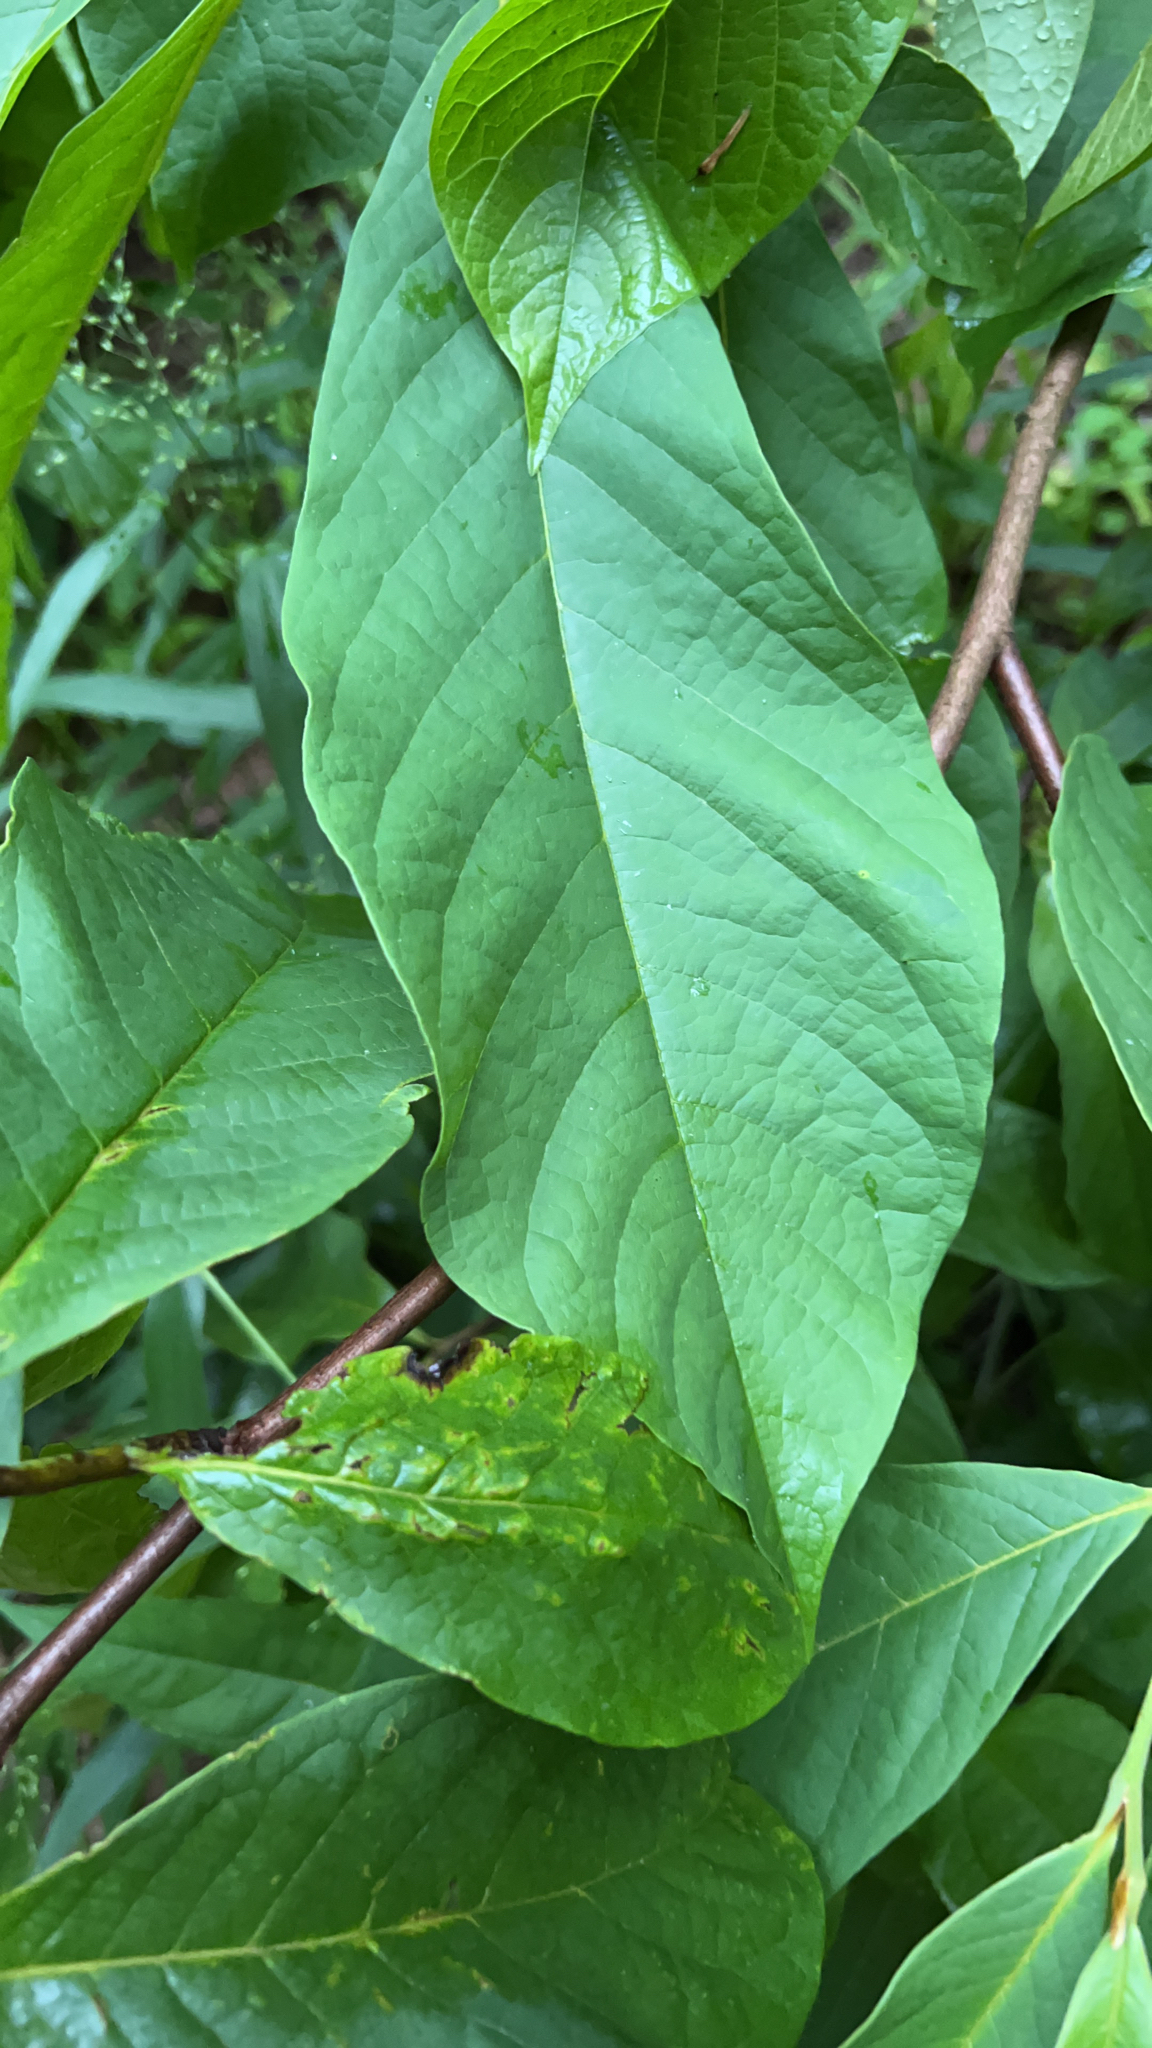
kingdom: Plantae
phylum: Tracheophyta
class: Magnoliopsida
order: Magnoliales
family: Annonaceae
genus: Asimina
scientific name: Asimina triloba
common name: Dog-banana
